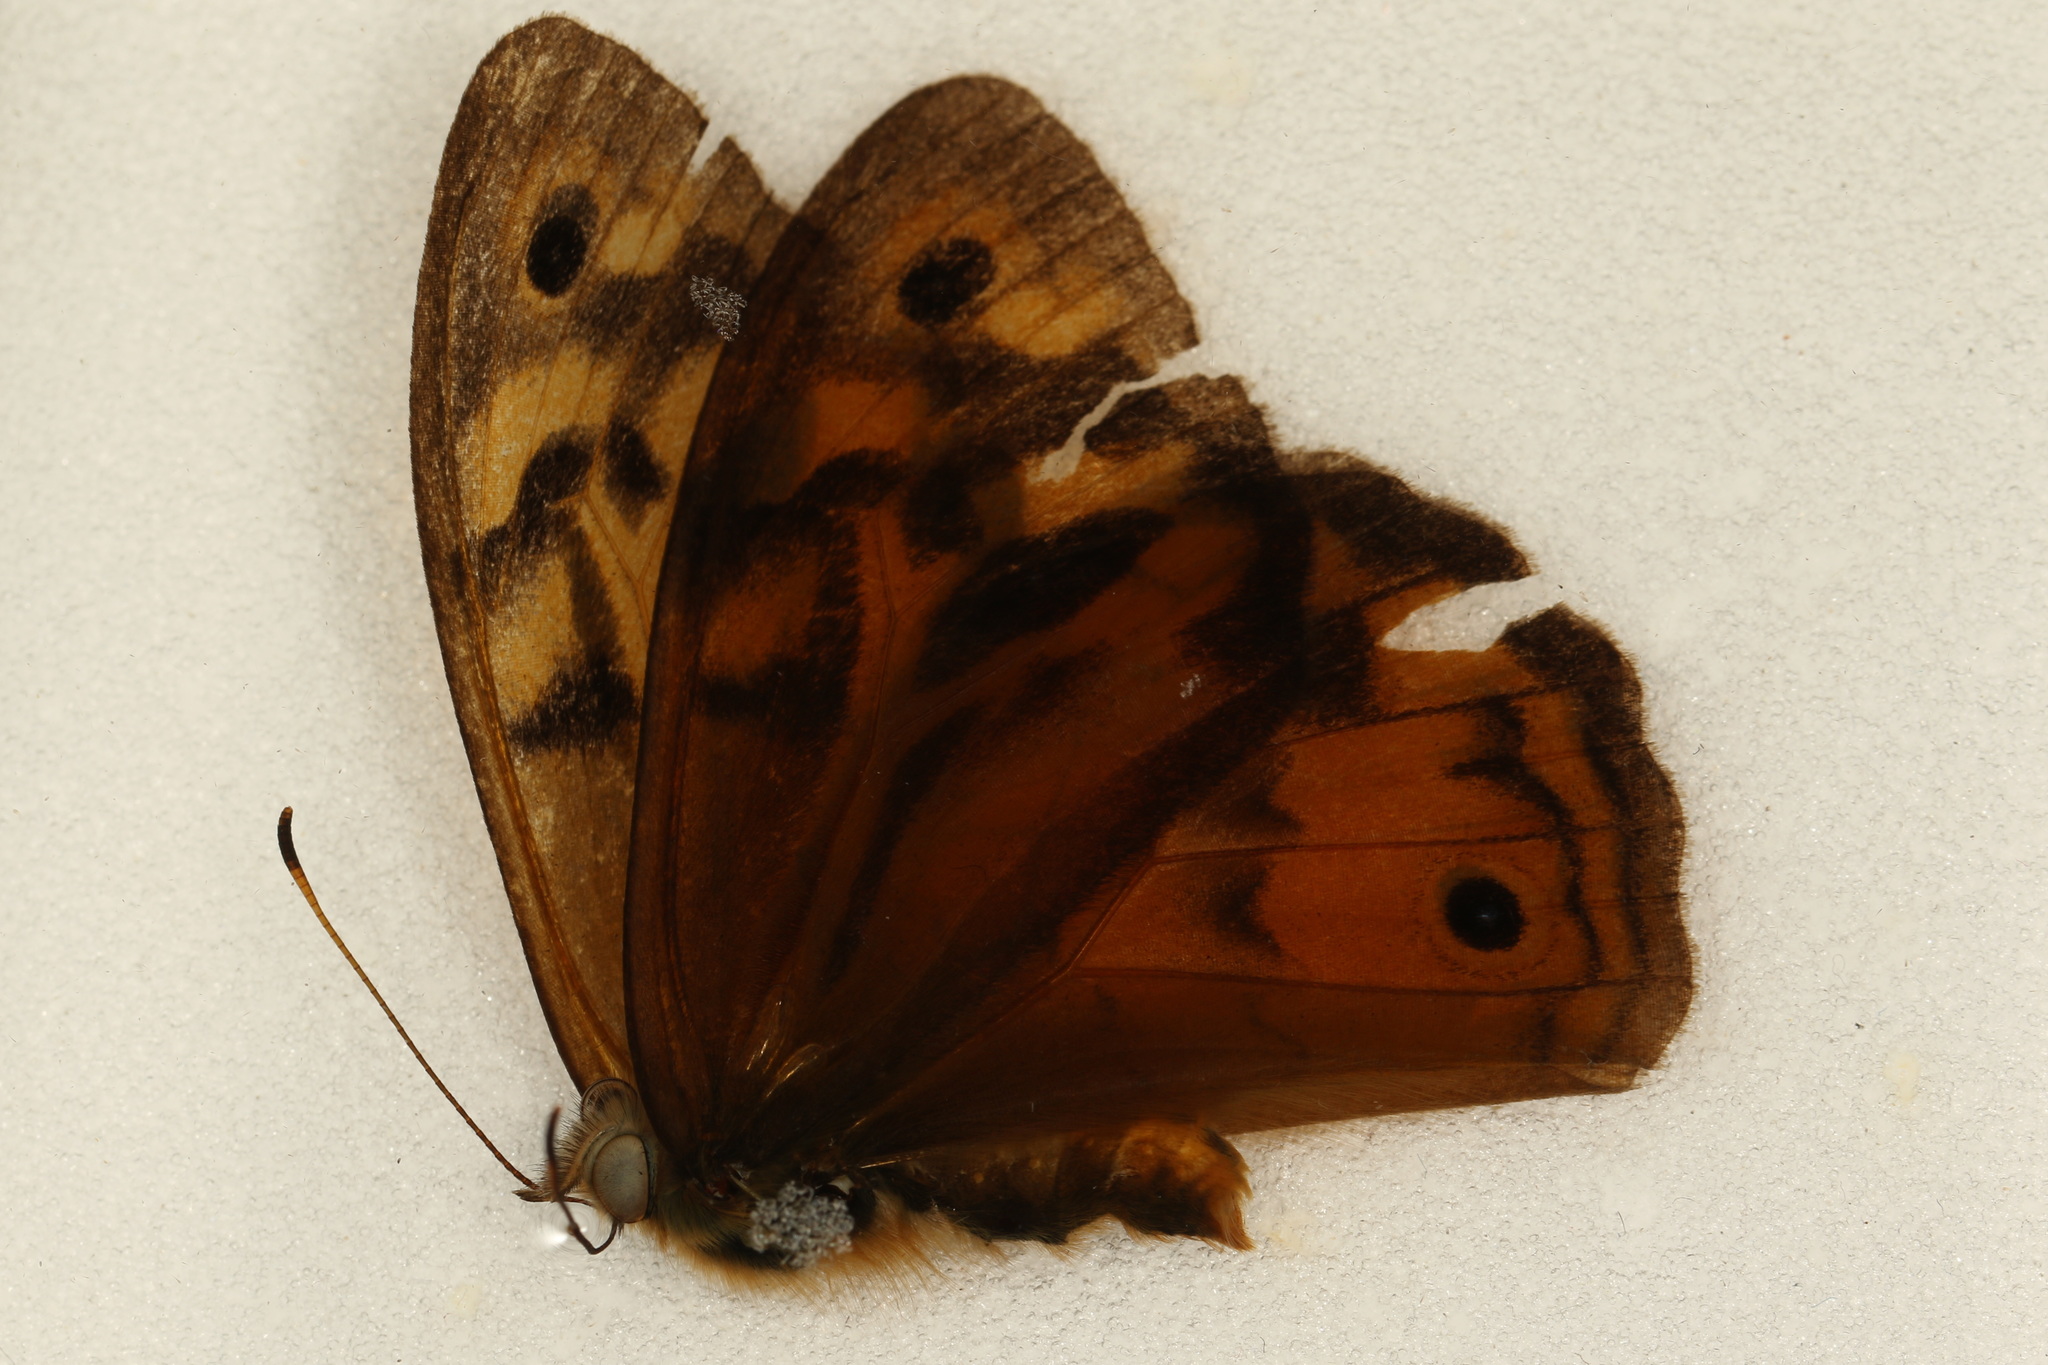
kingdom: Animalia
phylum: Arthropoda
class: Insecta
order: Lepidoptera
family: Nymphalidae
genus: Heteronympha
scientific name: Heteronympha merope
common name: Common brown
